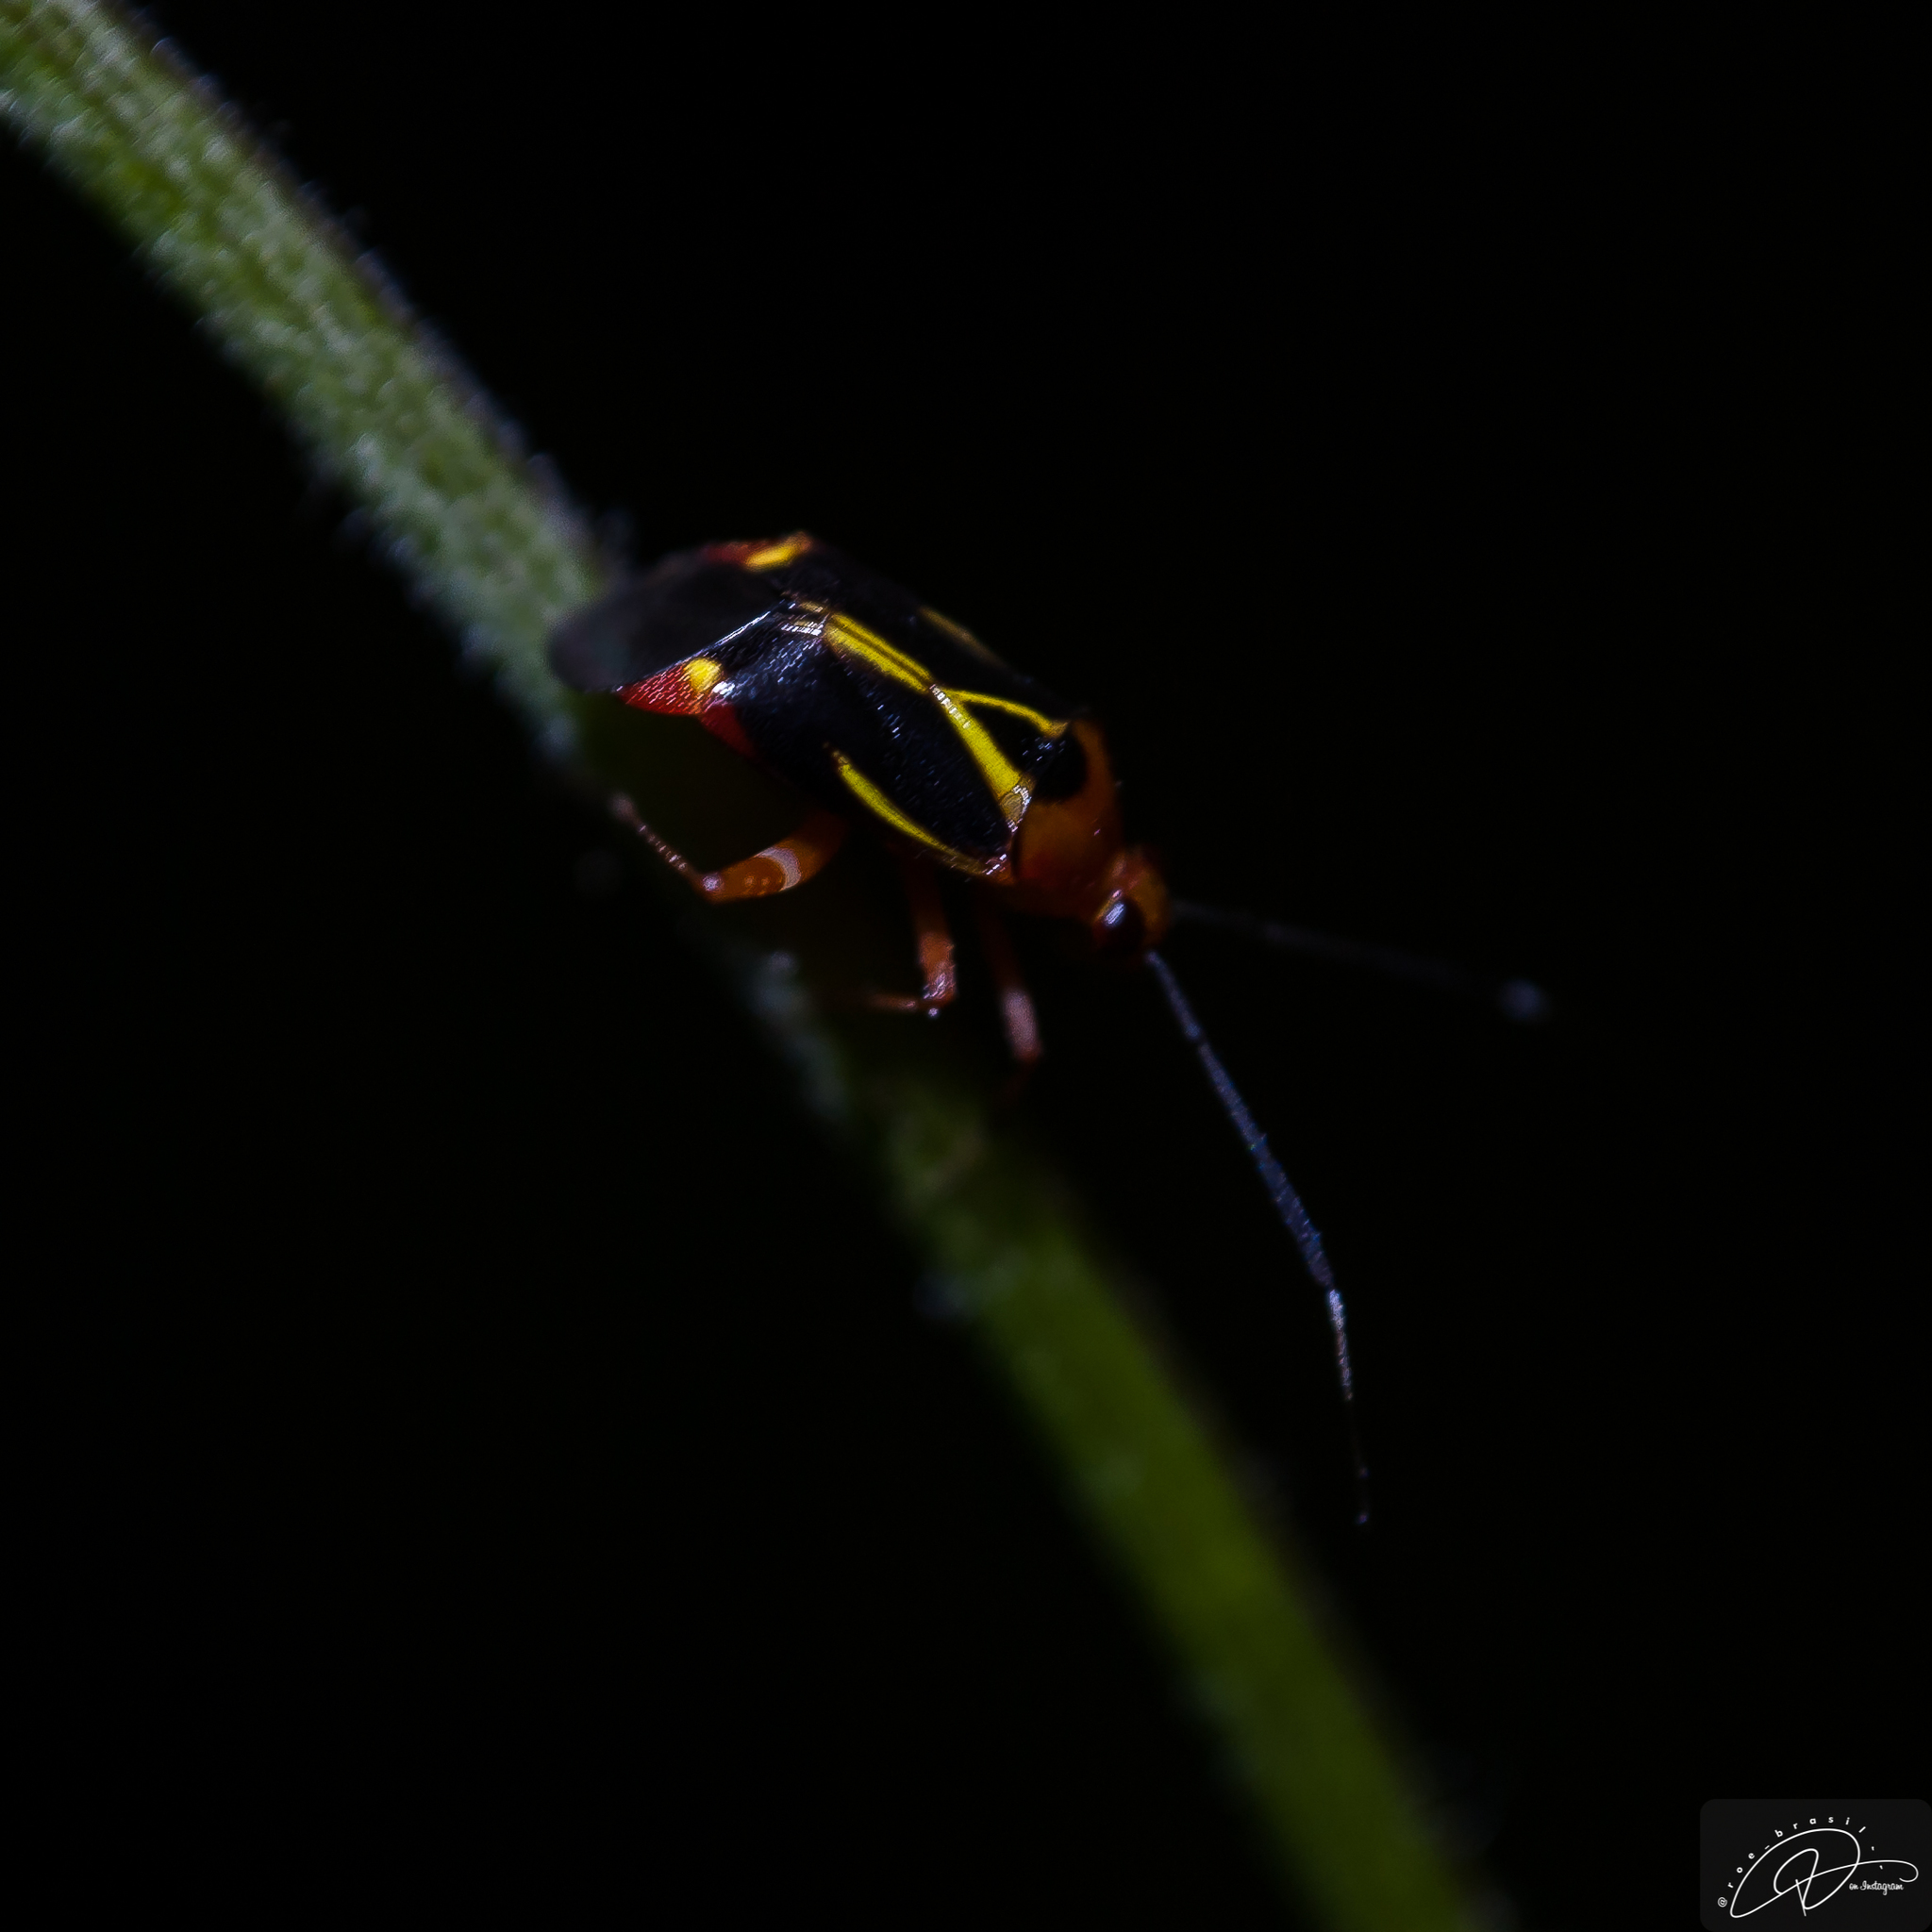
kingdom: Animalia
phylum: Arthropoda
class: Insecta
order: Hemiptera
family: Miridae
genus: Horciasinus
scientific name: Horciasinus wallengreni
